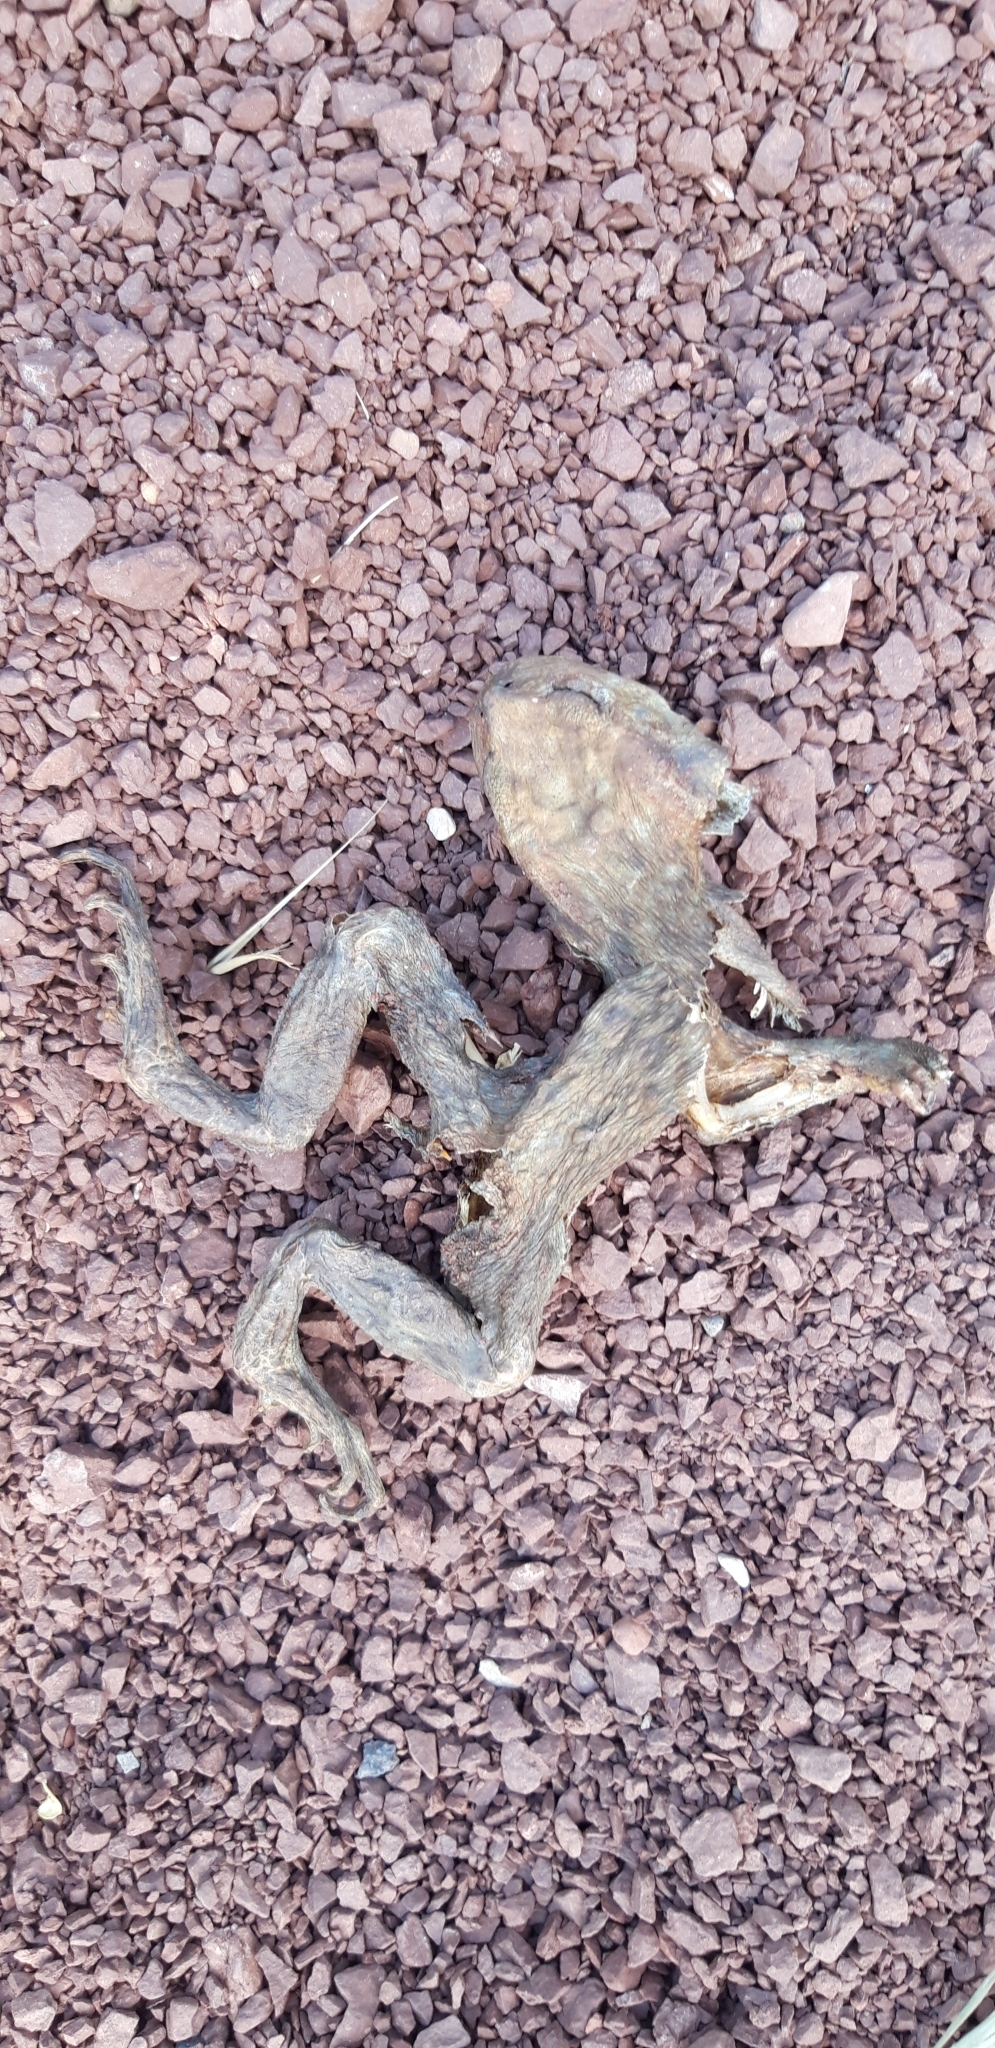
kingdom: Animalia
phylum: Chordata
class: Amphibia
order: Anura
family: Bufonidae
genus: Bufo
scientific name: Bufo spinosus
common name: Western common toad
